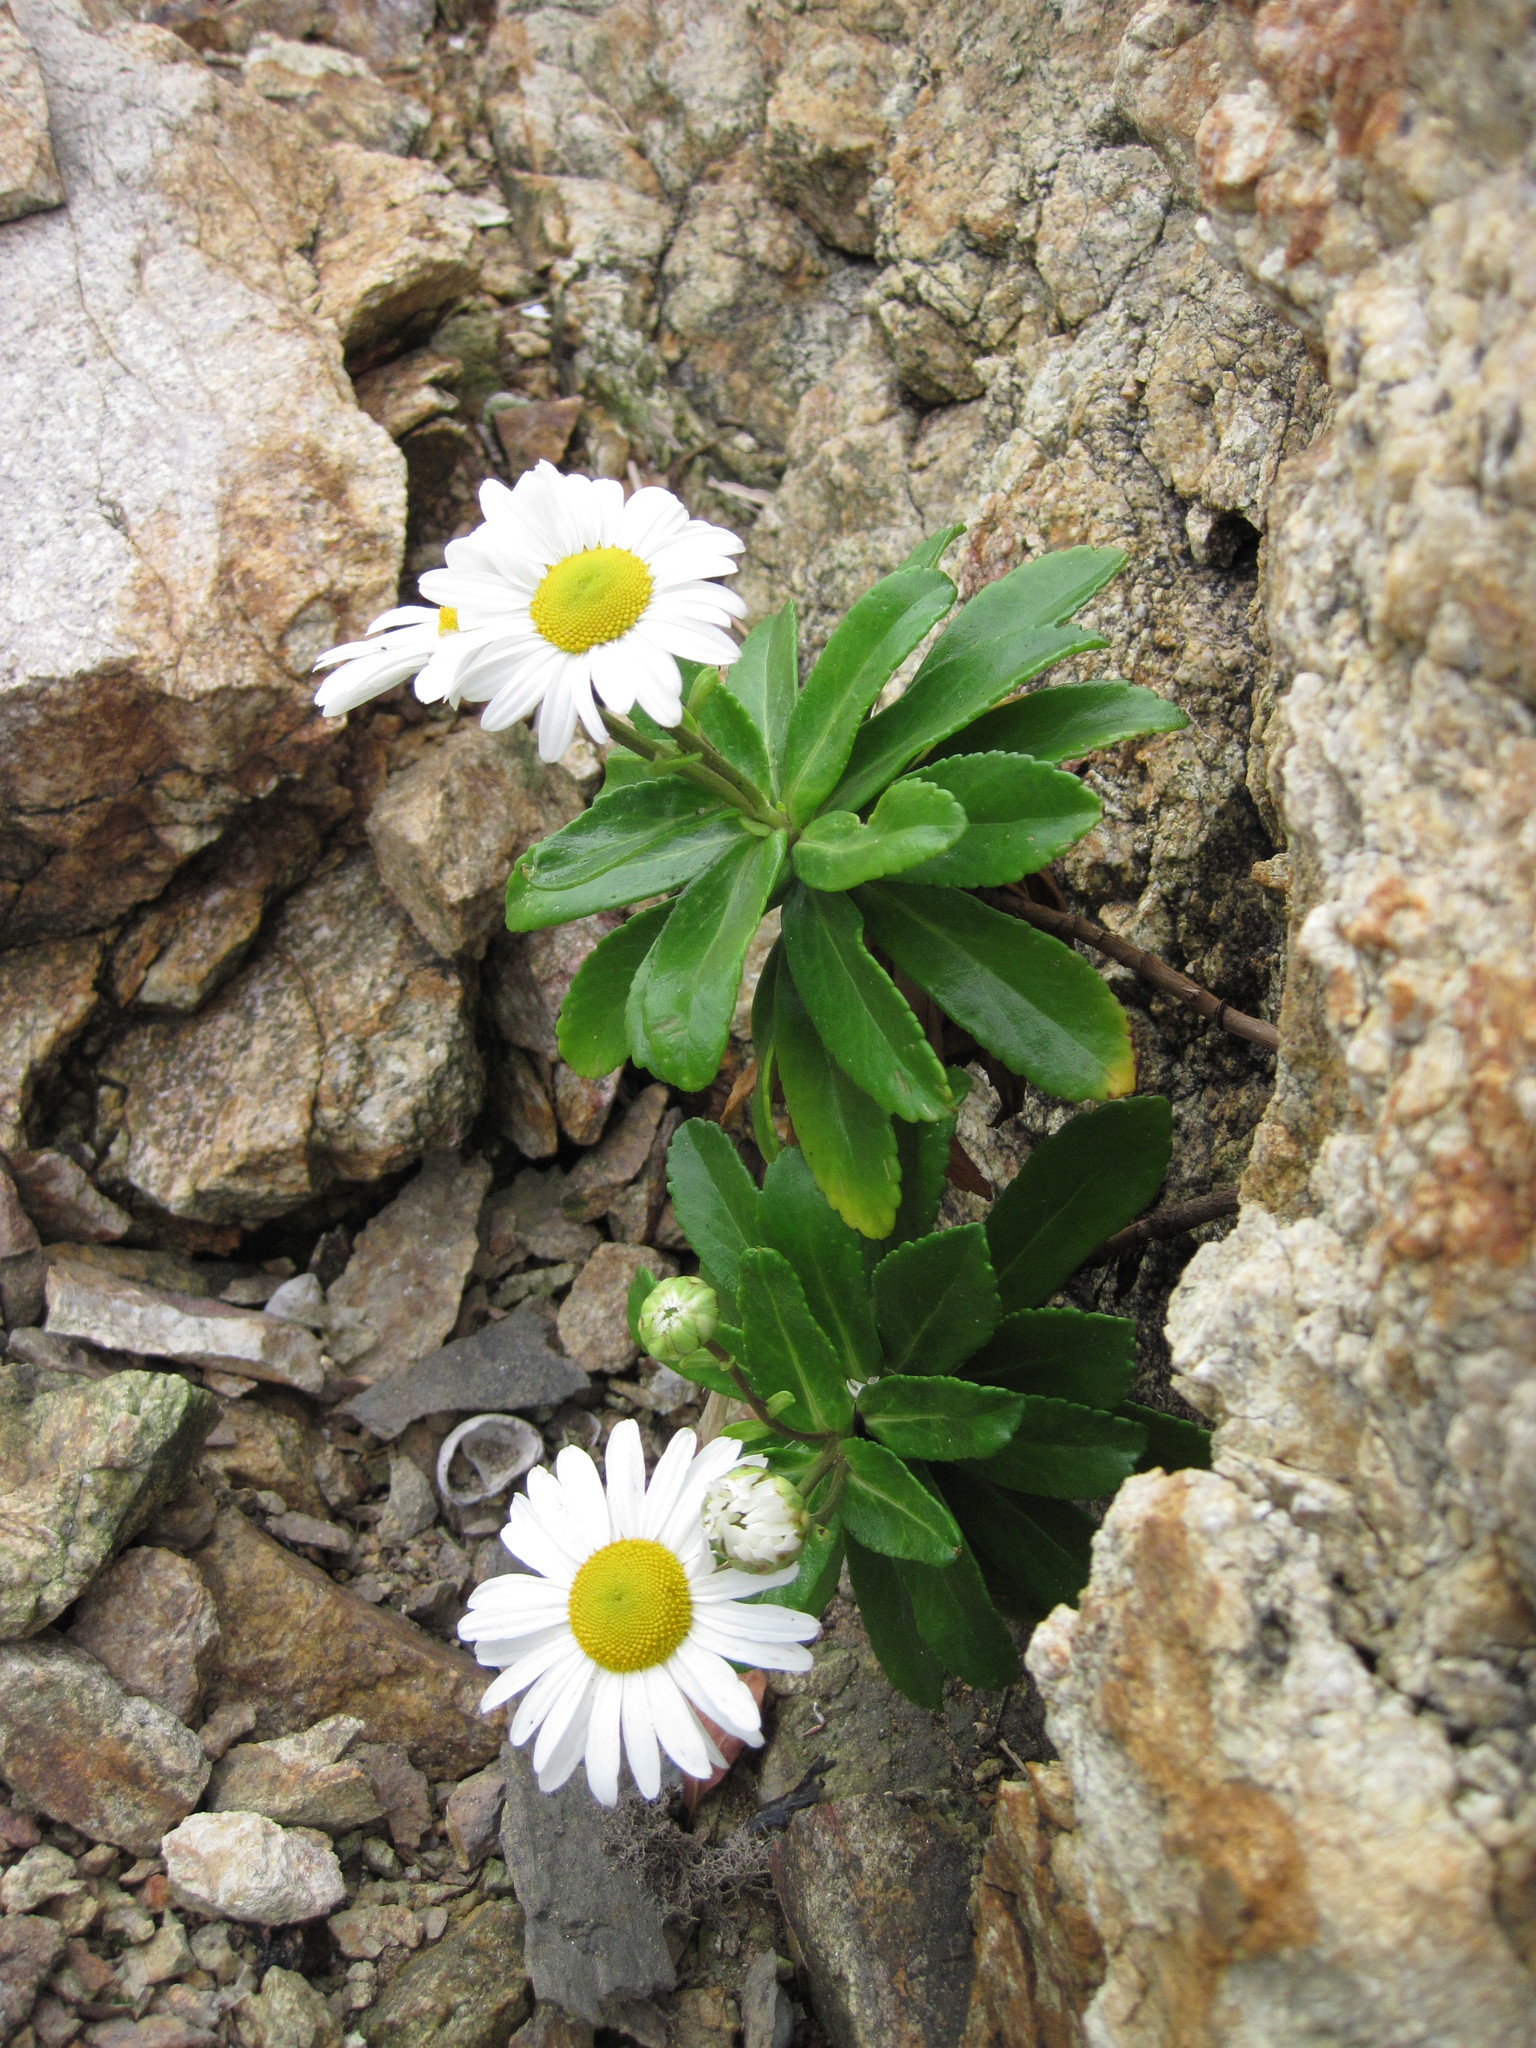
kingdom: Plantae
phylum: Tracheophyta
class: Magnoliopsida
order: Asterales
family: Asteraceae
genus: Nipponanthemum
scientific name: Nipponanthemum nipponicum
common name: Nippon daisy
